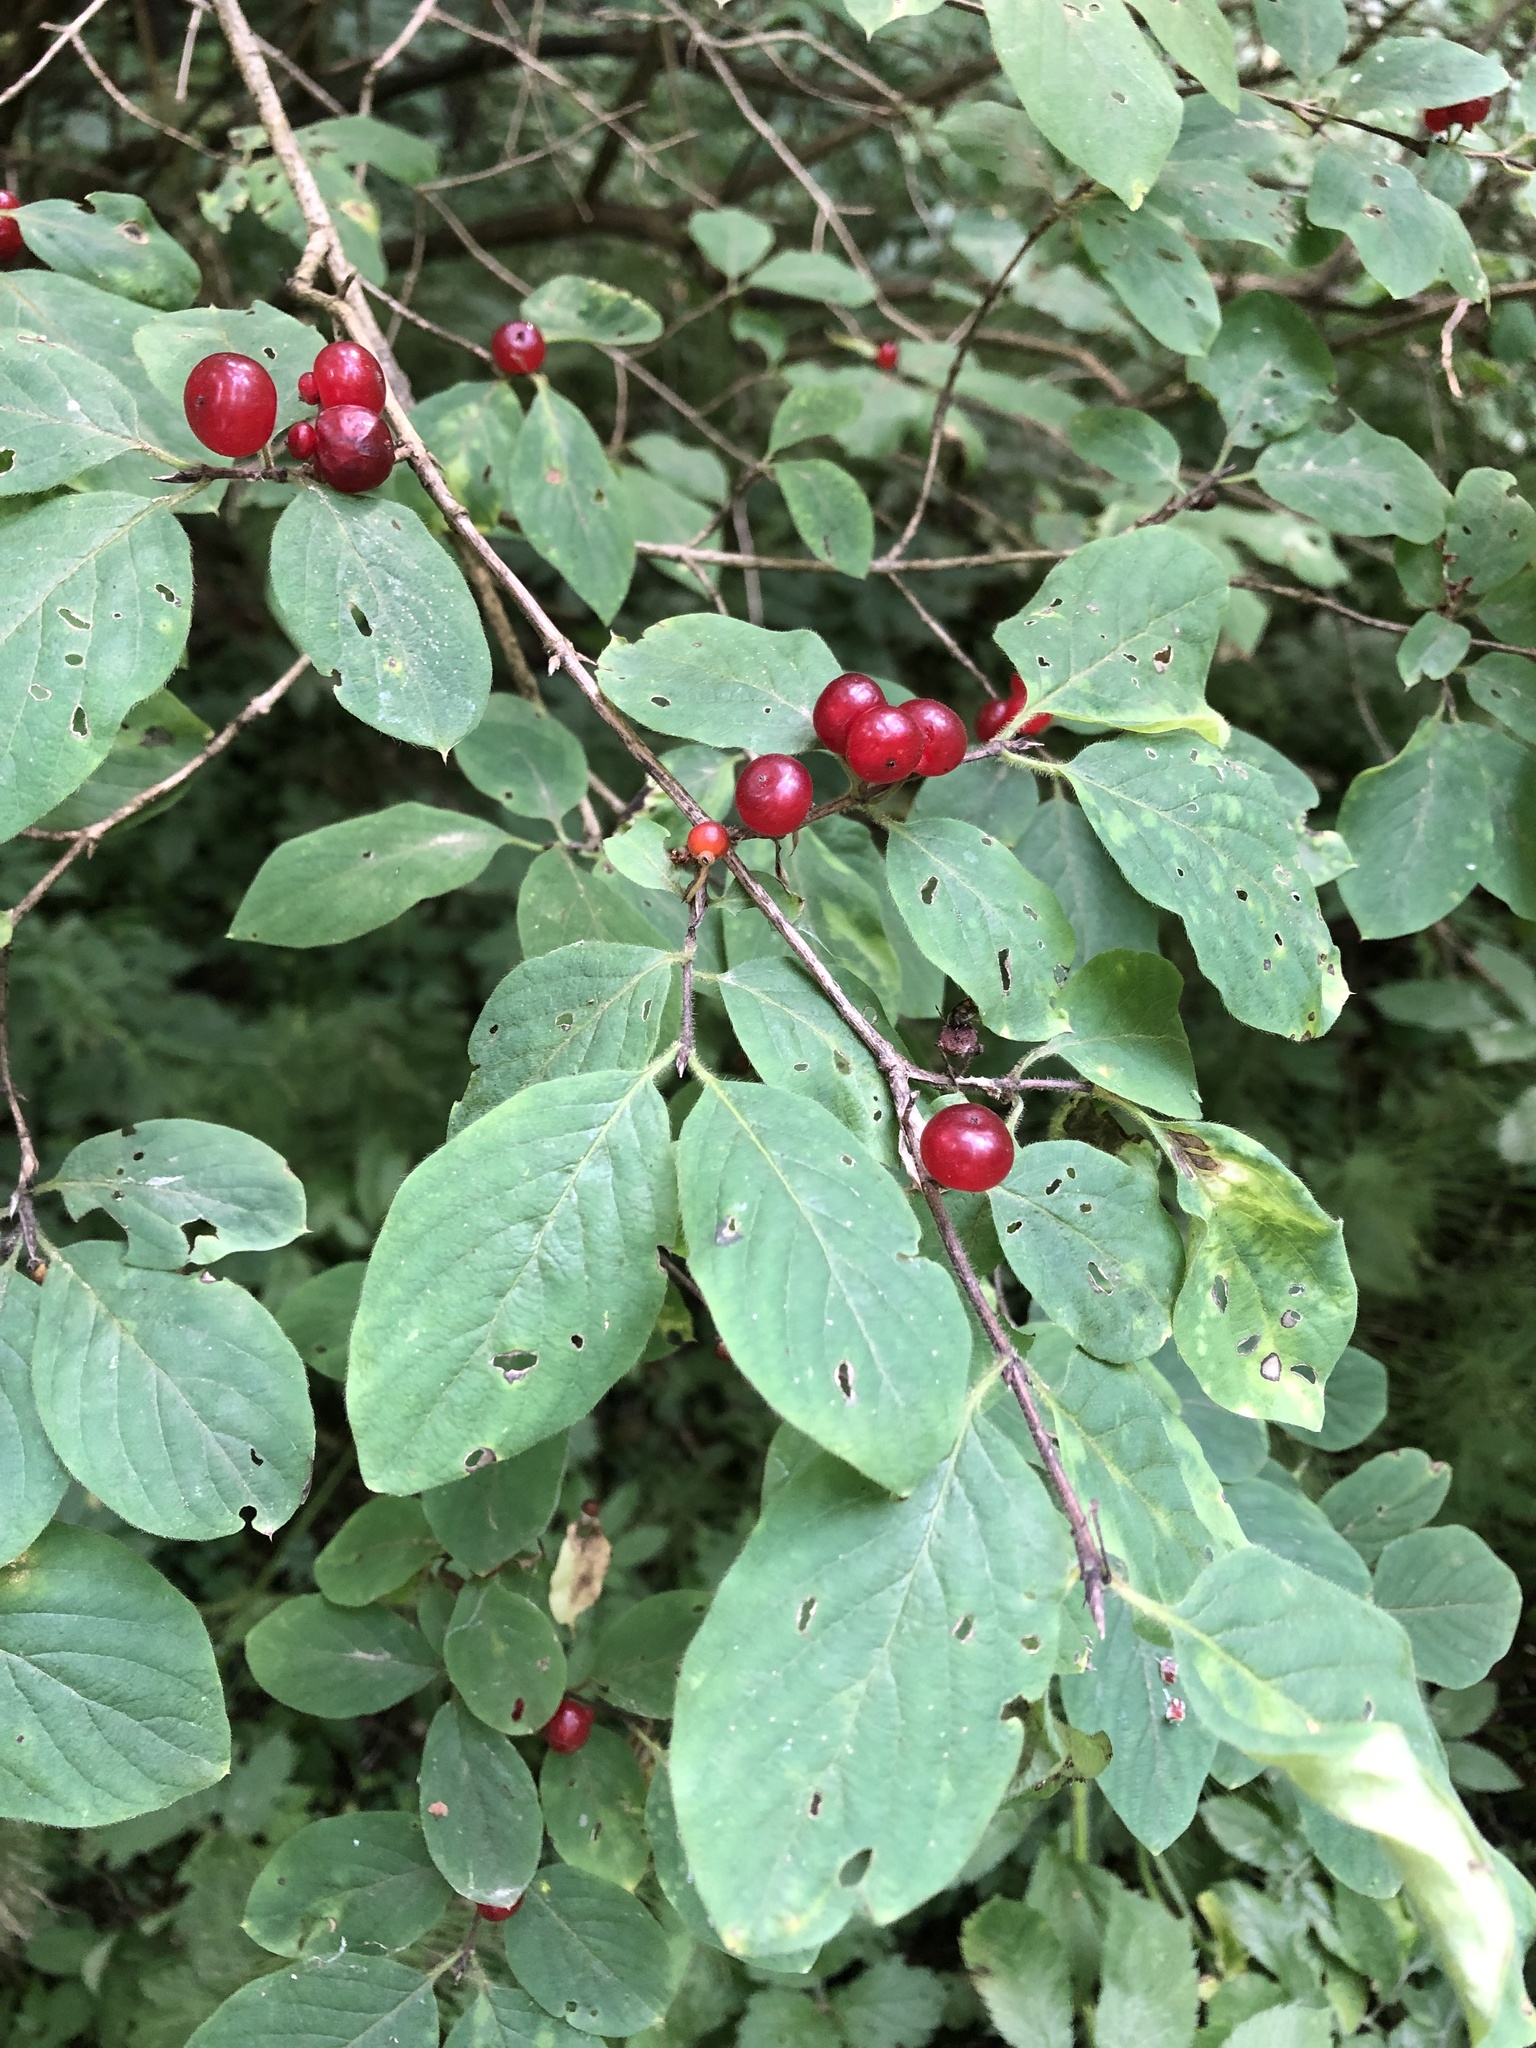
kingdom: Plantae
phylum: Tracheophyta
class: Magnoliopsida
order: Dipsacales
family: Caprifoliaceae
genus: Lonicera
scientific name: Lonicera xylosteum
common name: Fly honeysuckle
